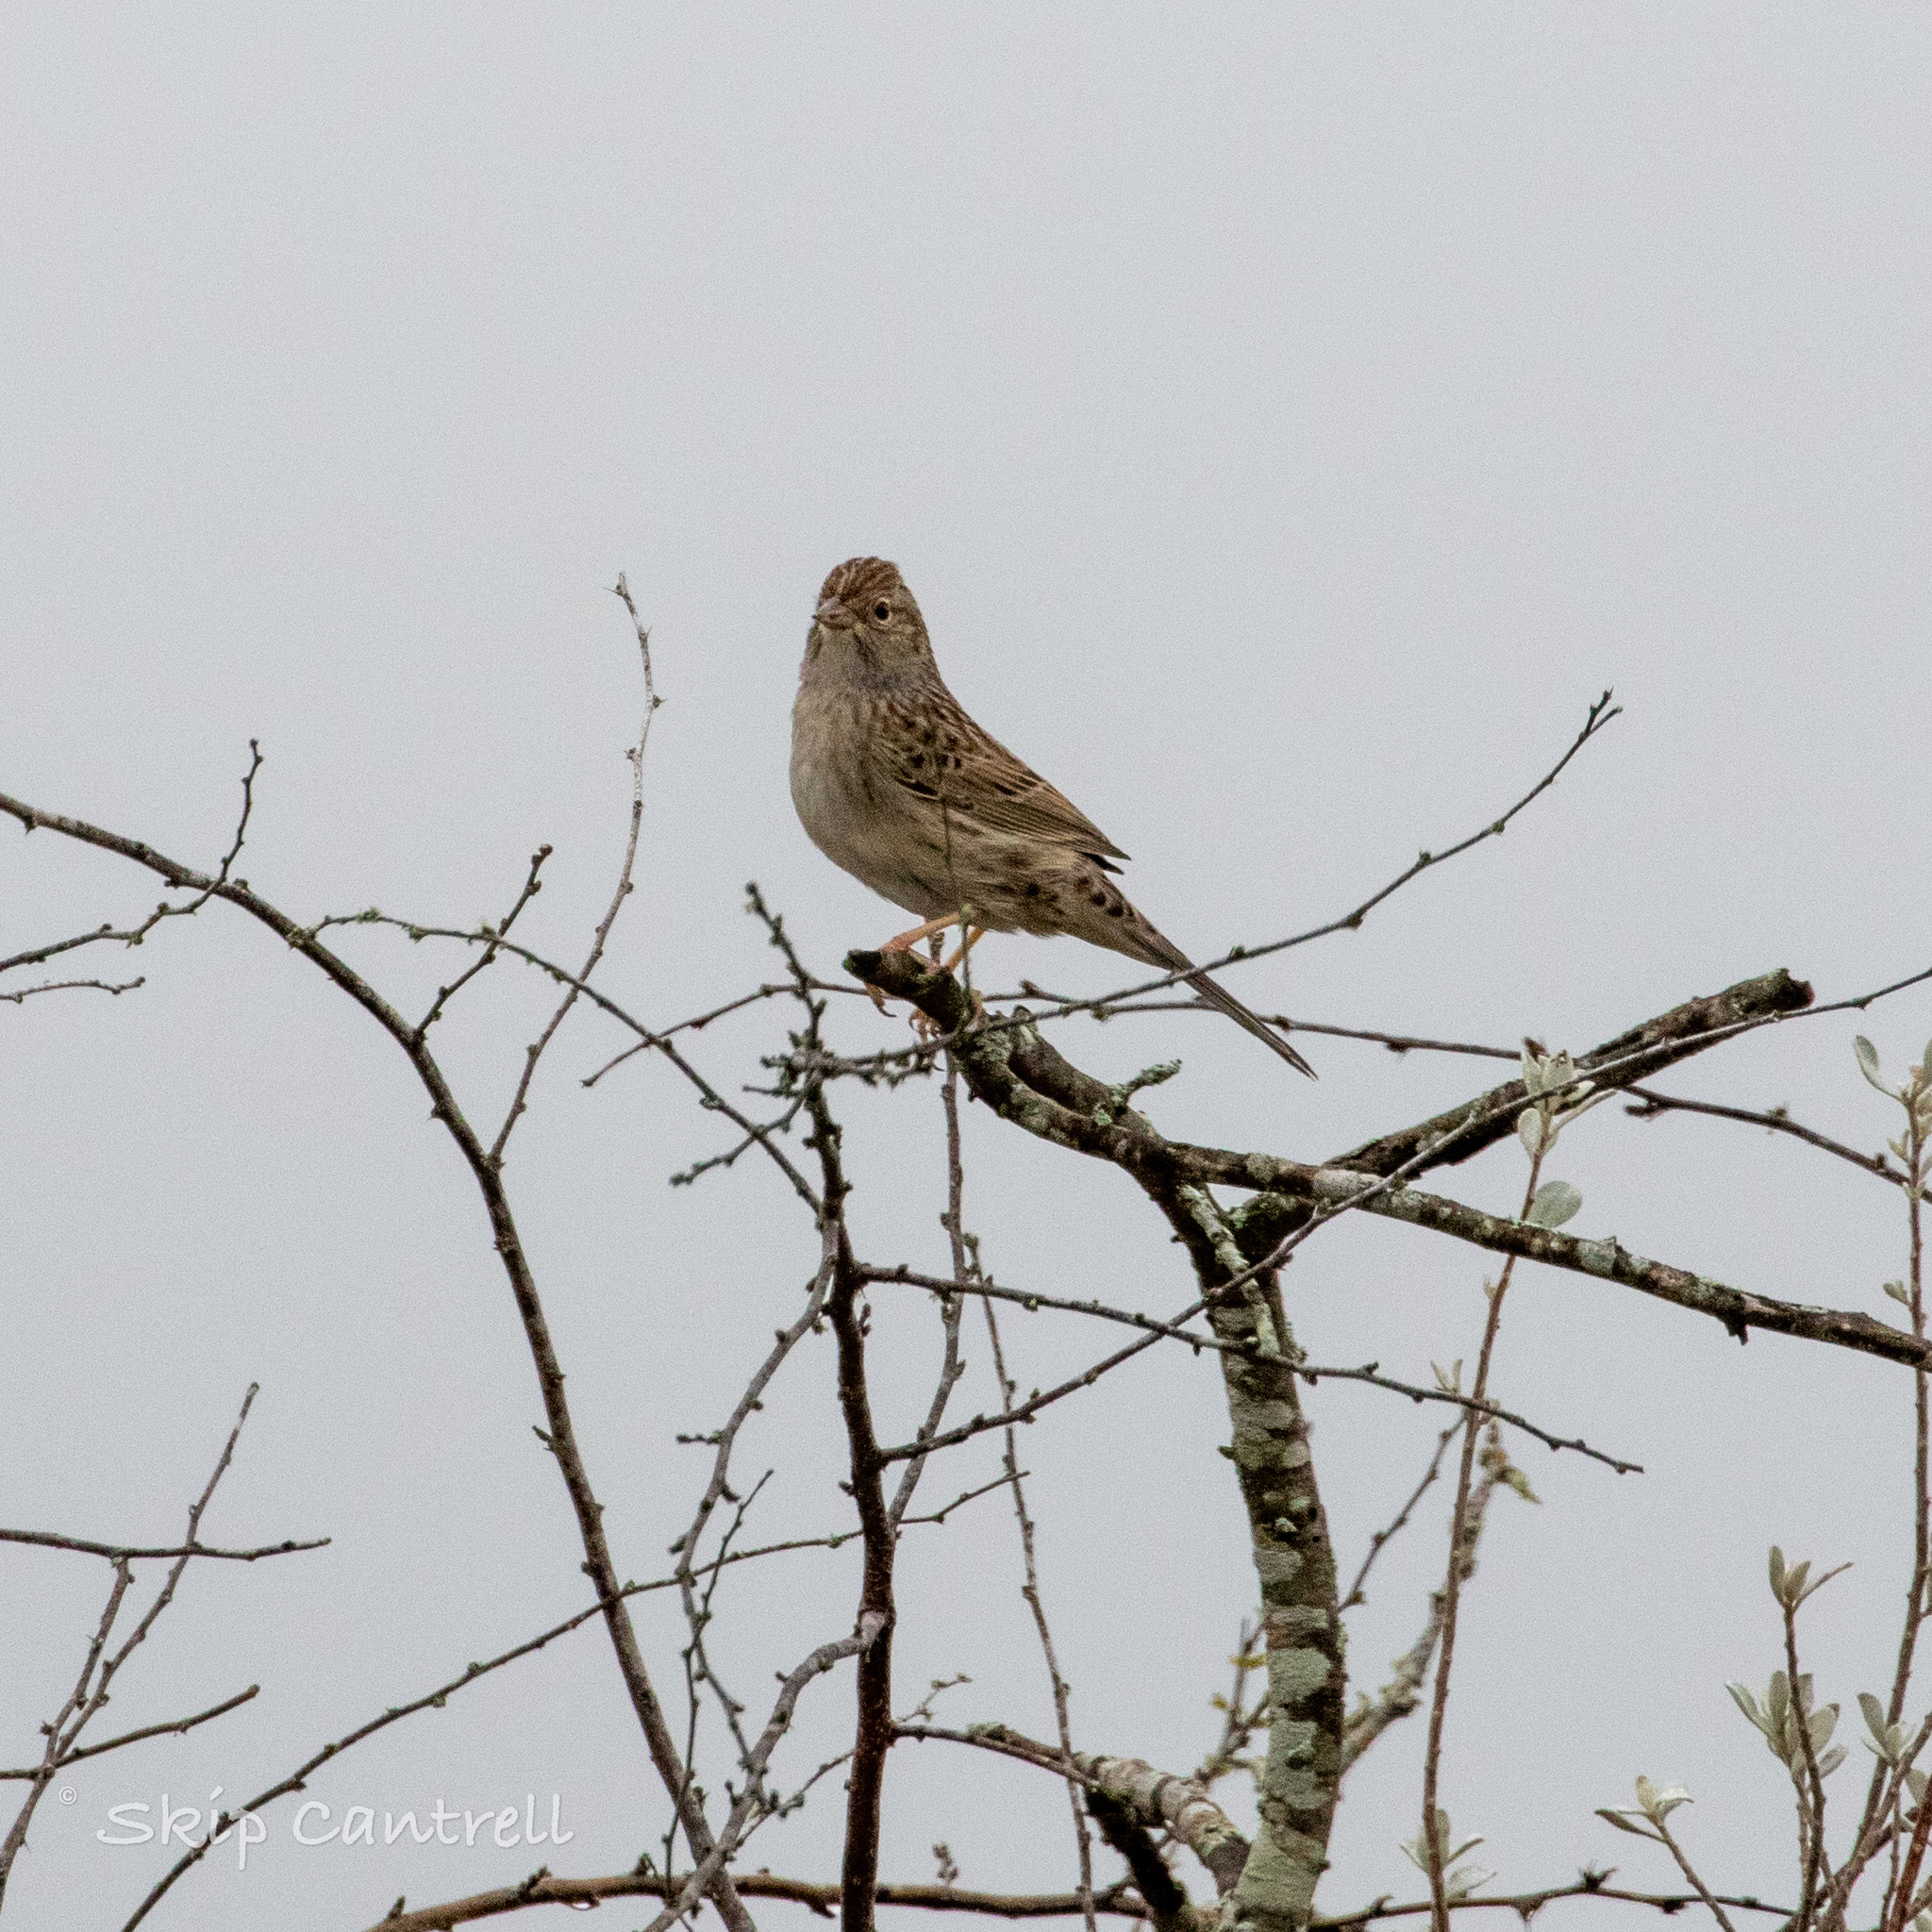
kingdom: Animalia
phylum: Chordata
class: Aves
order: Passeriformes
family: Passerellidae
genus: Peucaea
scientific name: Peucaea cassinii
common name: Cassin's sparrow
